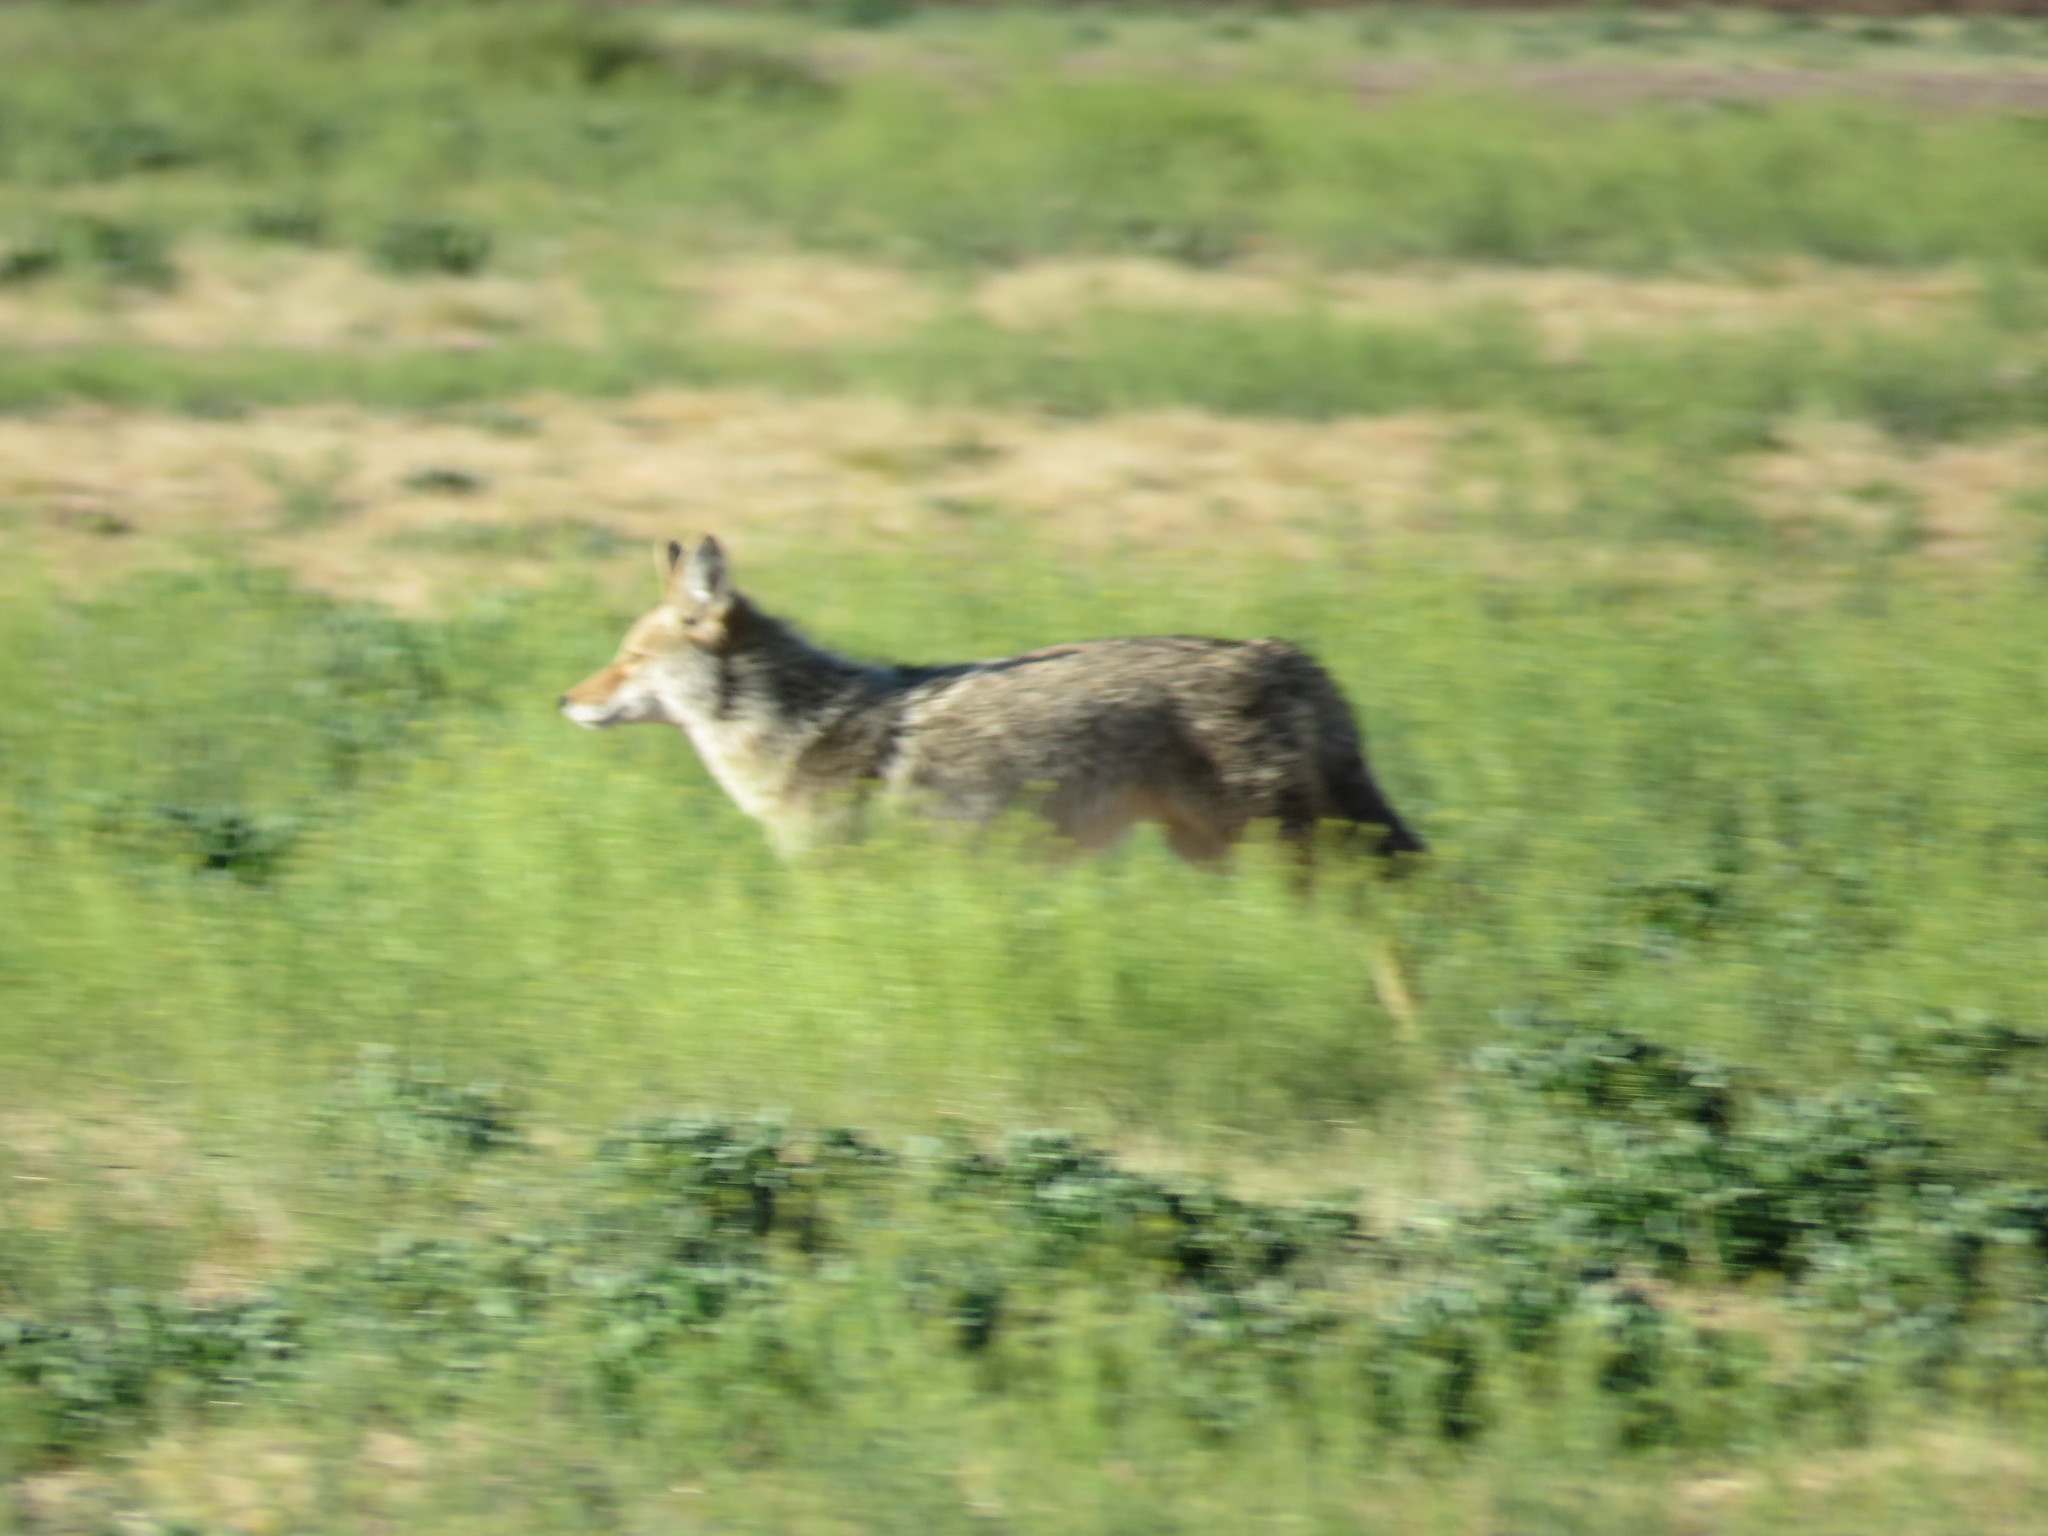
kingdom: Animalia
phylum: Chordata
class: Mammalia
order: Carnivora
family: Canidae
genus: Canis
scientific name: Canis latrans
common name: Coyote
